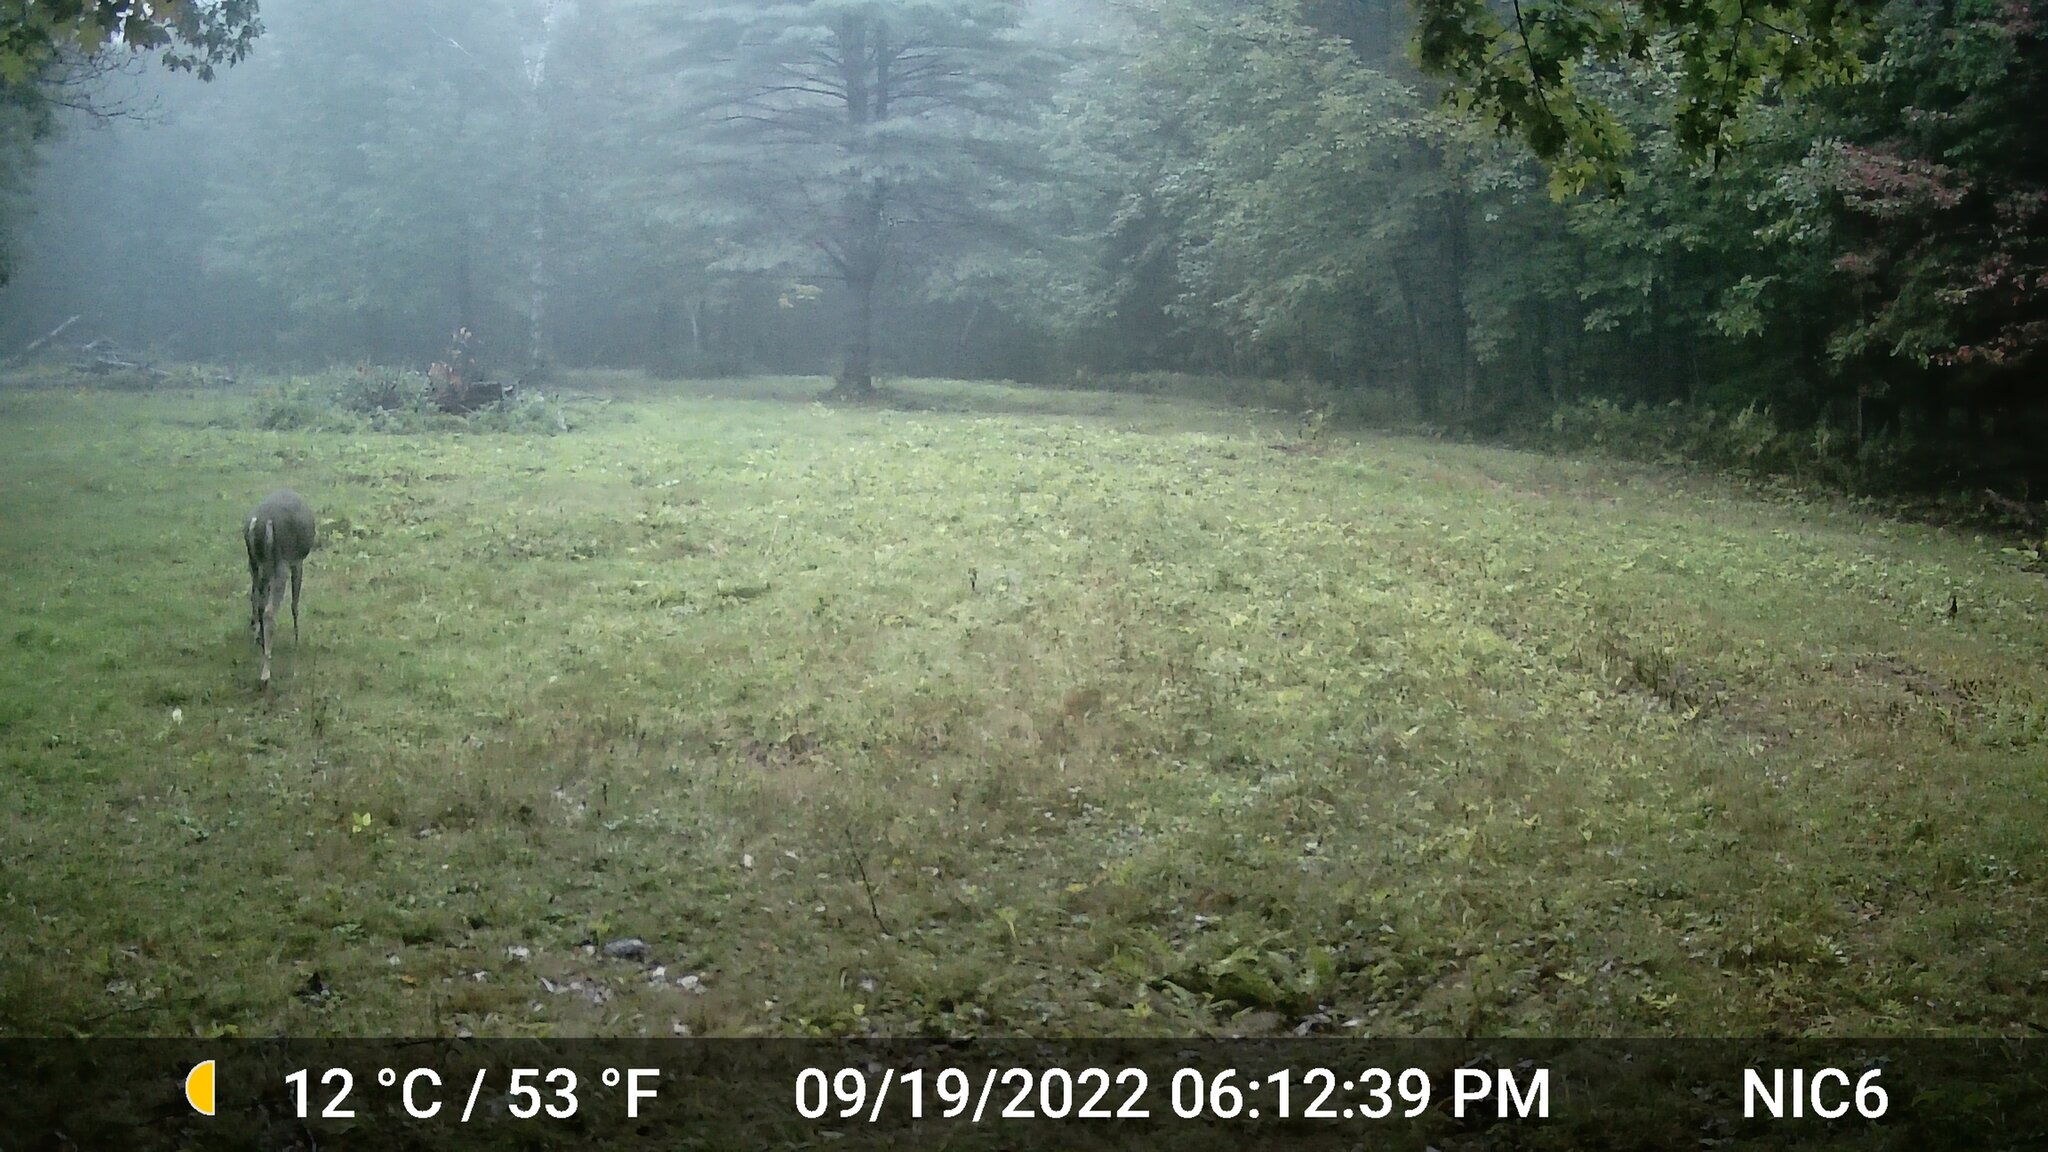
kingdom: Animalia
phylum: Chordata
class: Mammalia
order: Artiodactyla
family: Cervidae
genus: Odocoileus
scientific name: Odocoileus virginianus
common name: White-tailed deer
